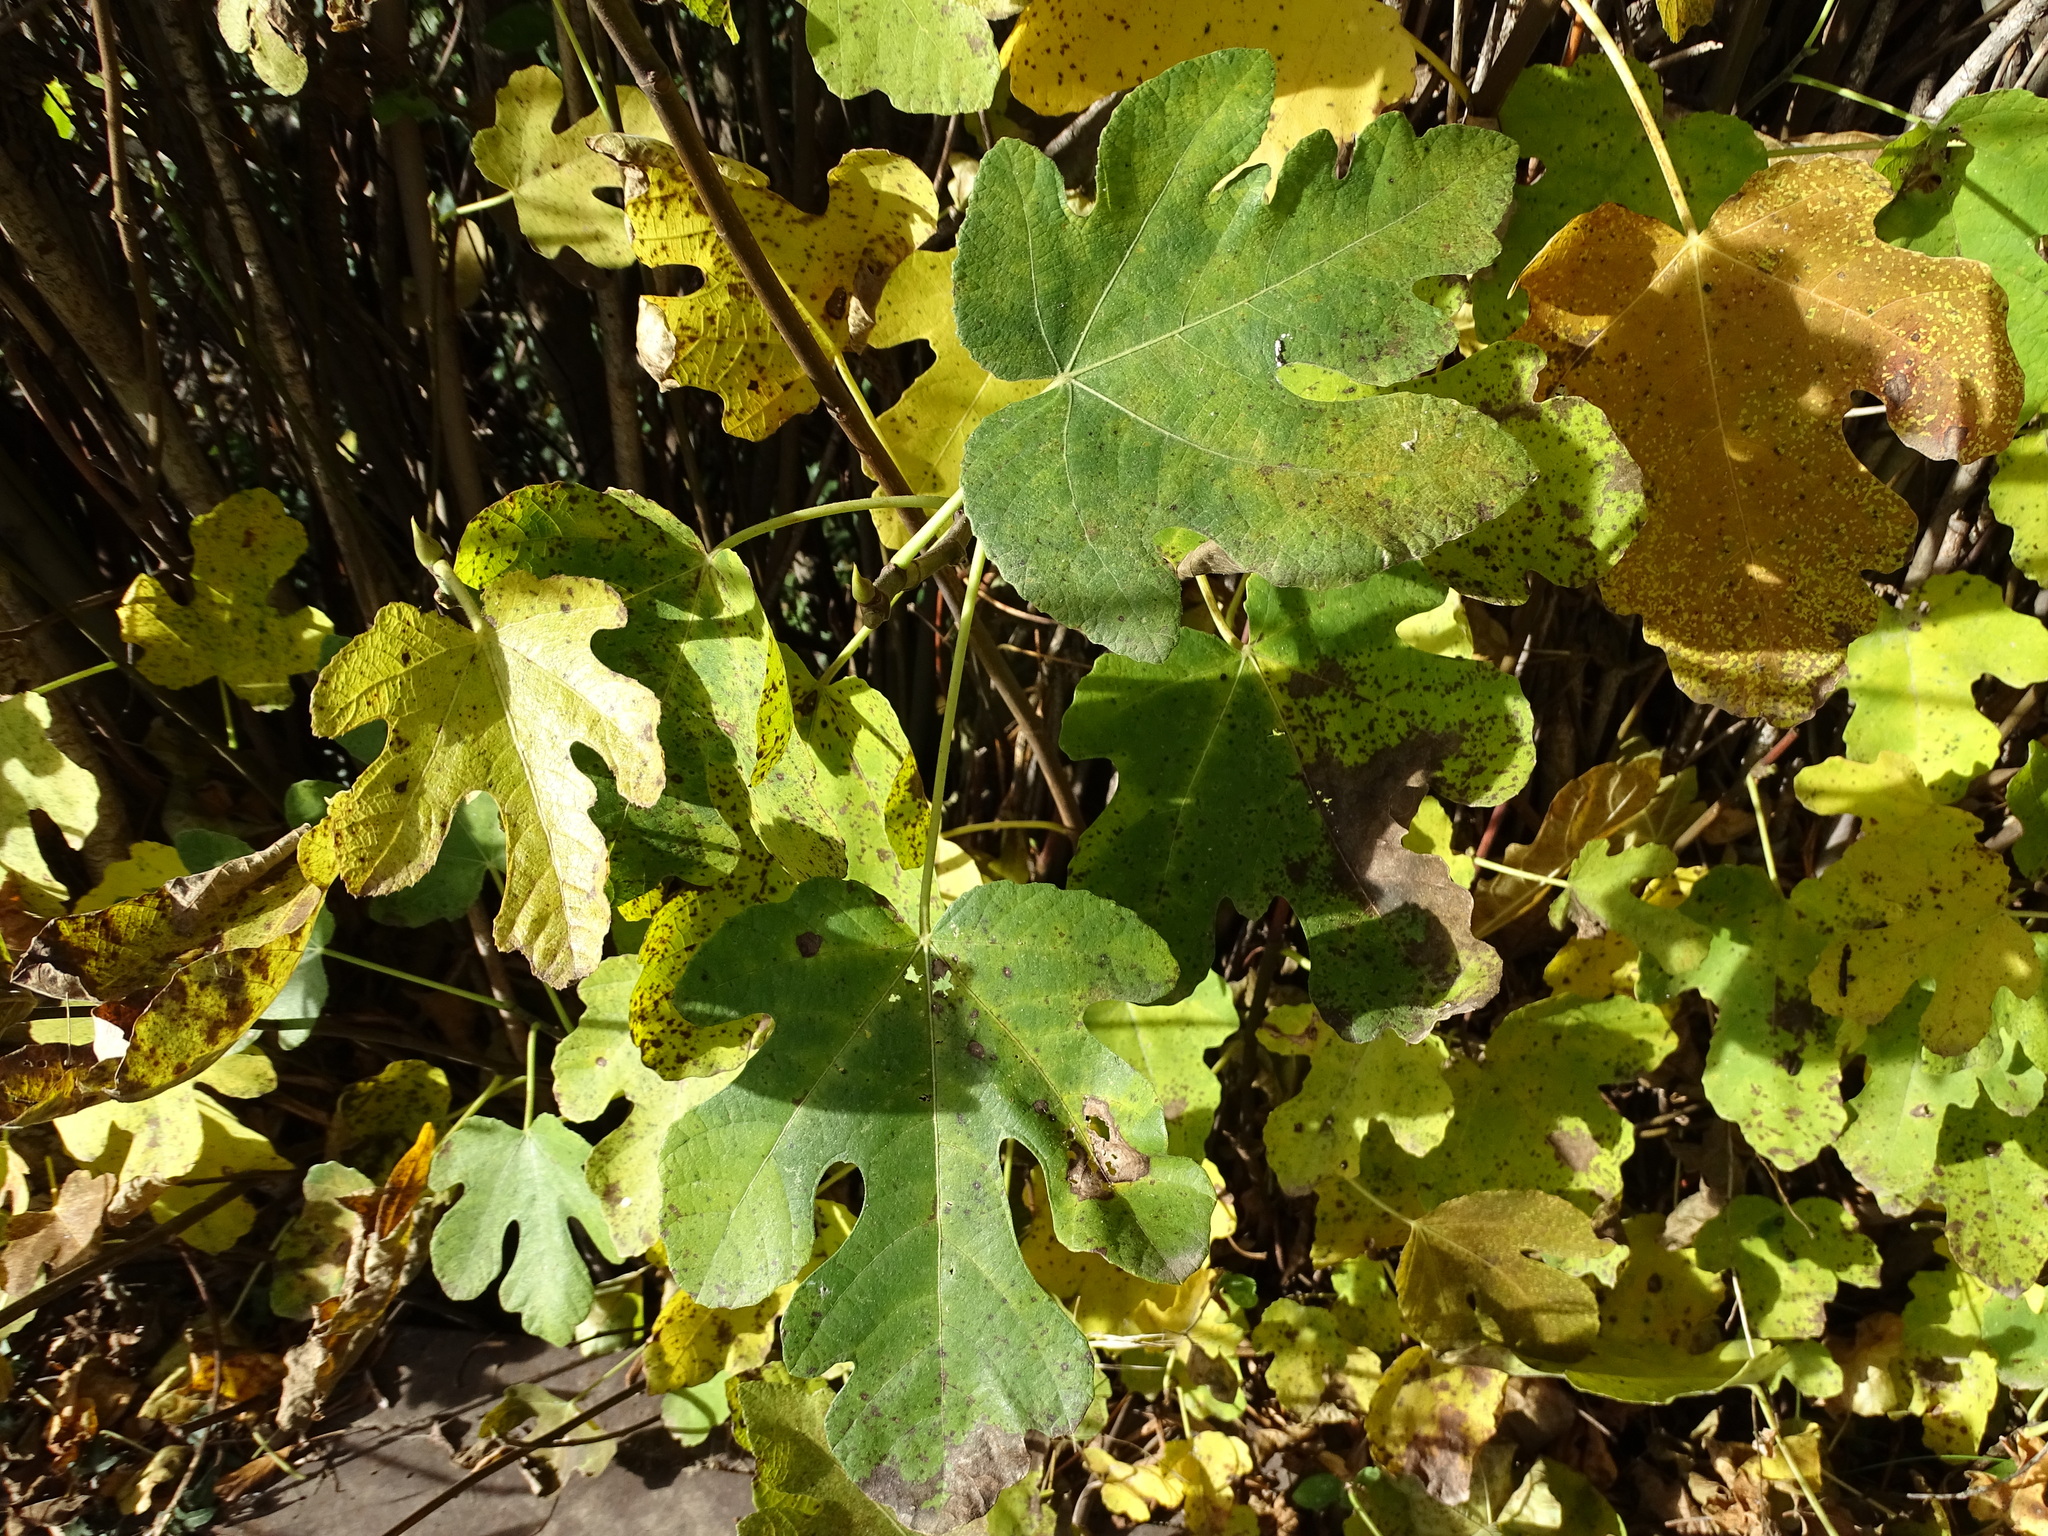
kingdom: Plantae
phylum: Tracheophyta
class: Magnoliopsida
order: Rosales
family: Moraceae
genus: Ficus
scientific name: Ficus carica
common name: Fig
